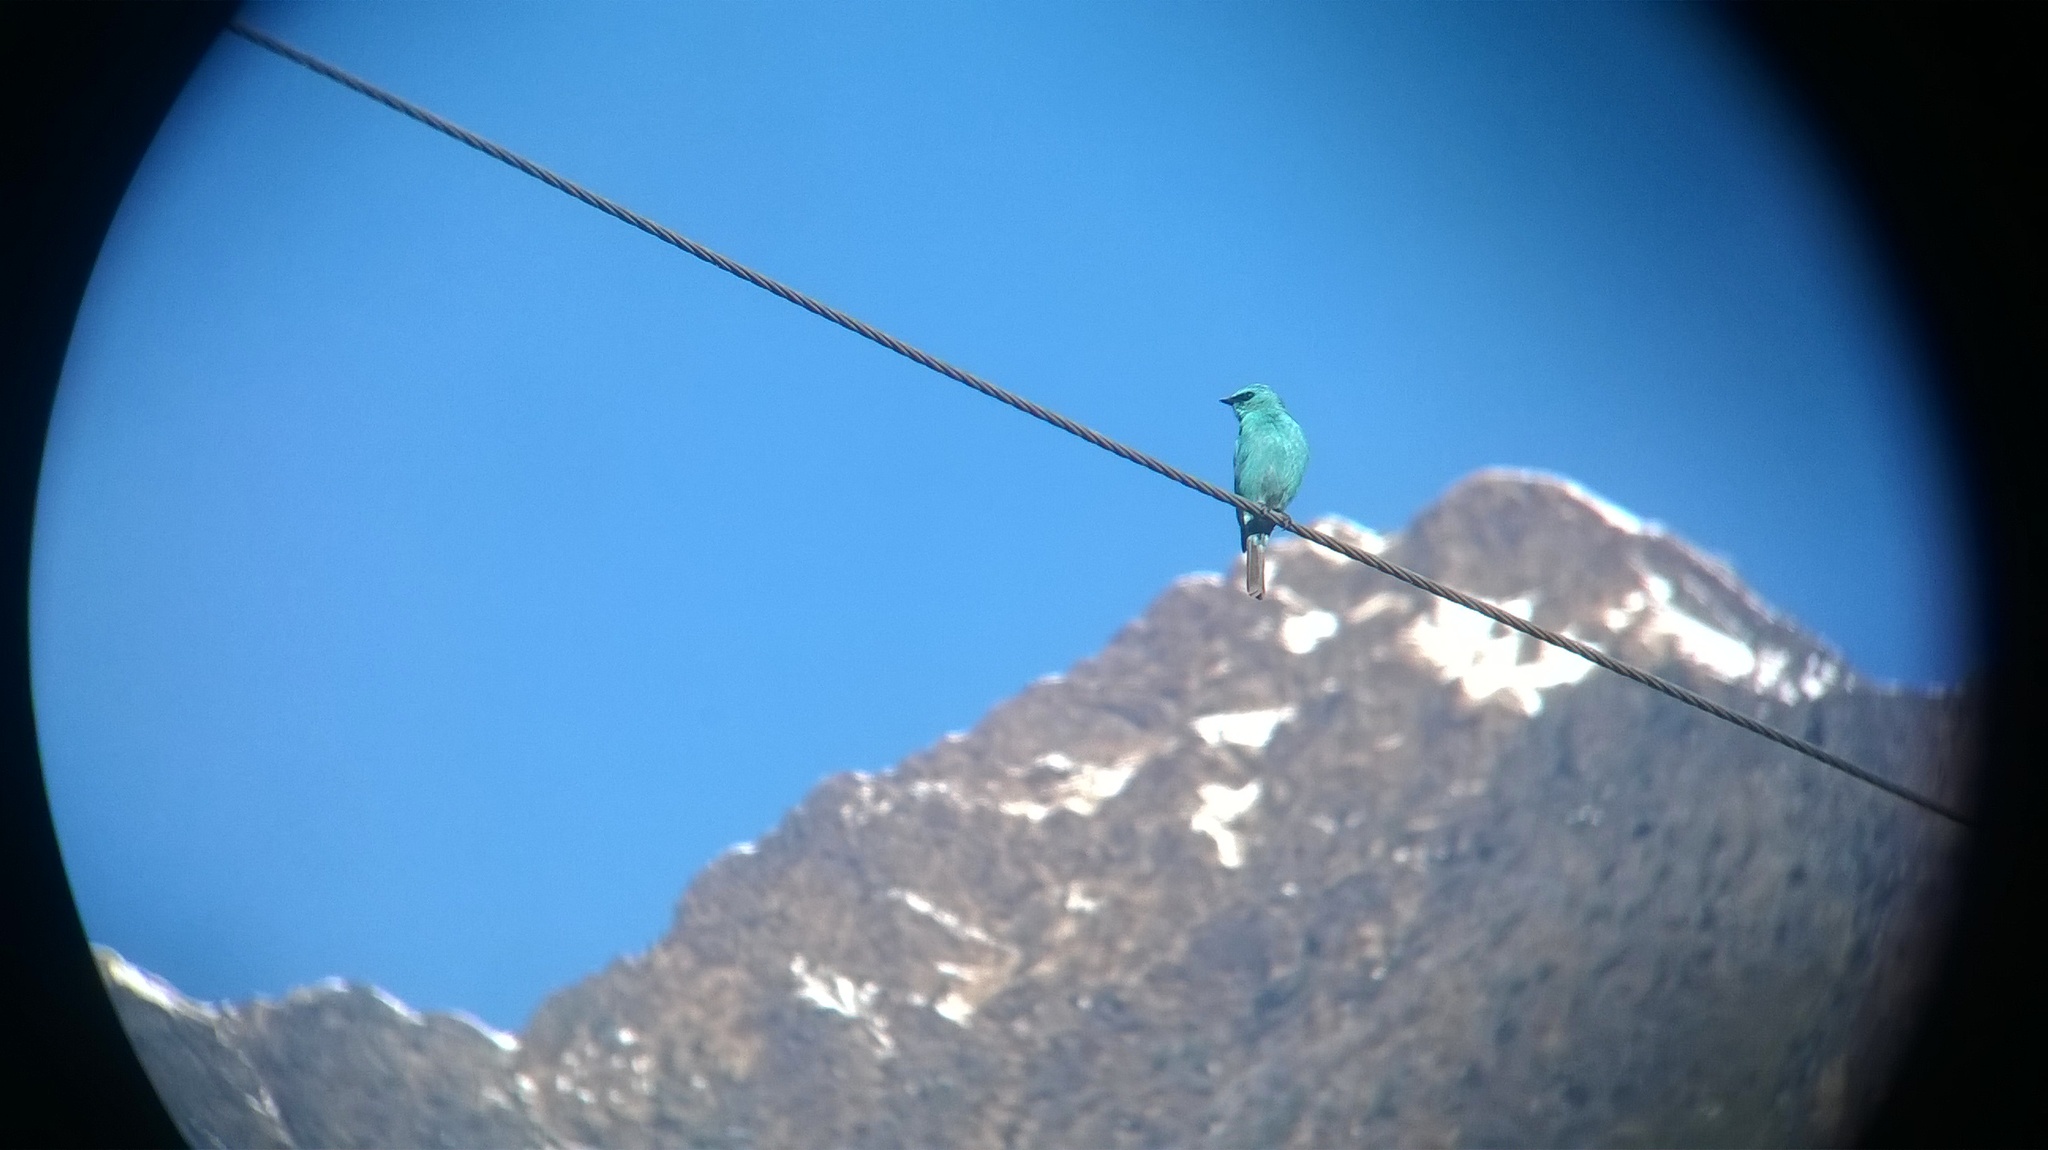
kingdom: Animalia
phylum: Chordata
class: Aves
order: Passeriformes
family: Muscicapidae
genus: Eumyias
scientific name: Eumyias thalassinus
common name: Verditer flycatcher
